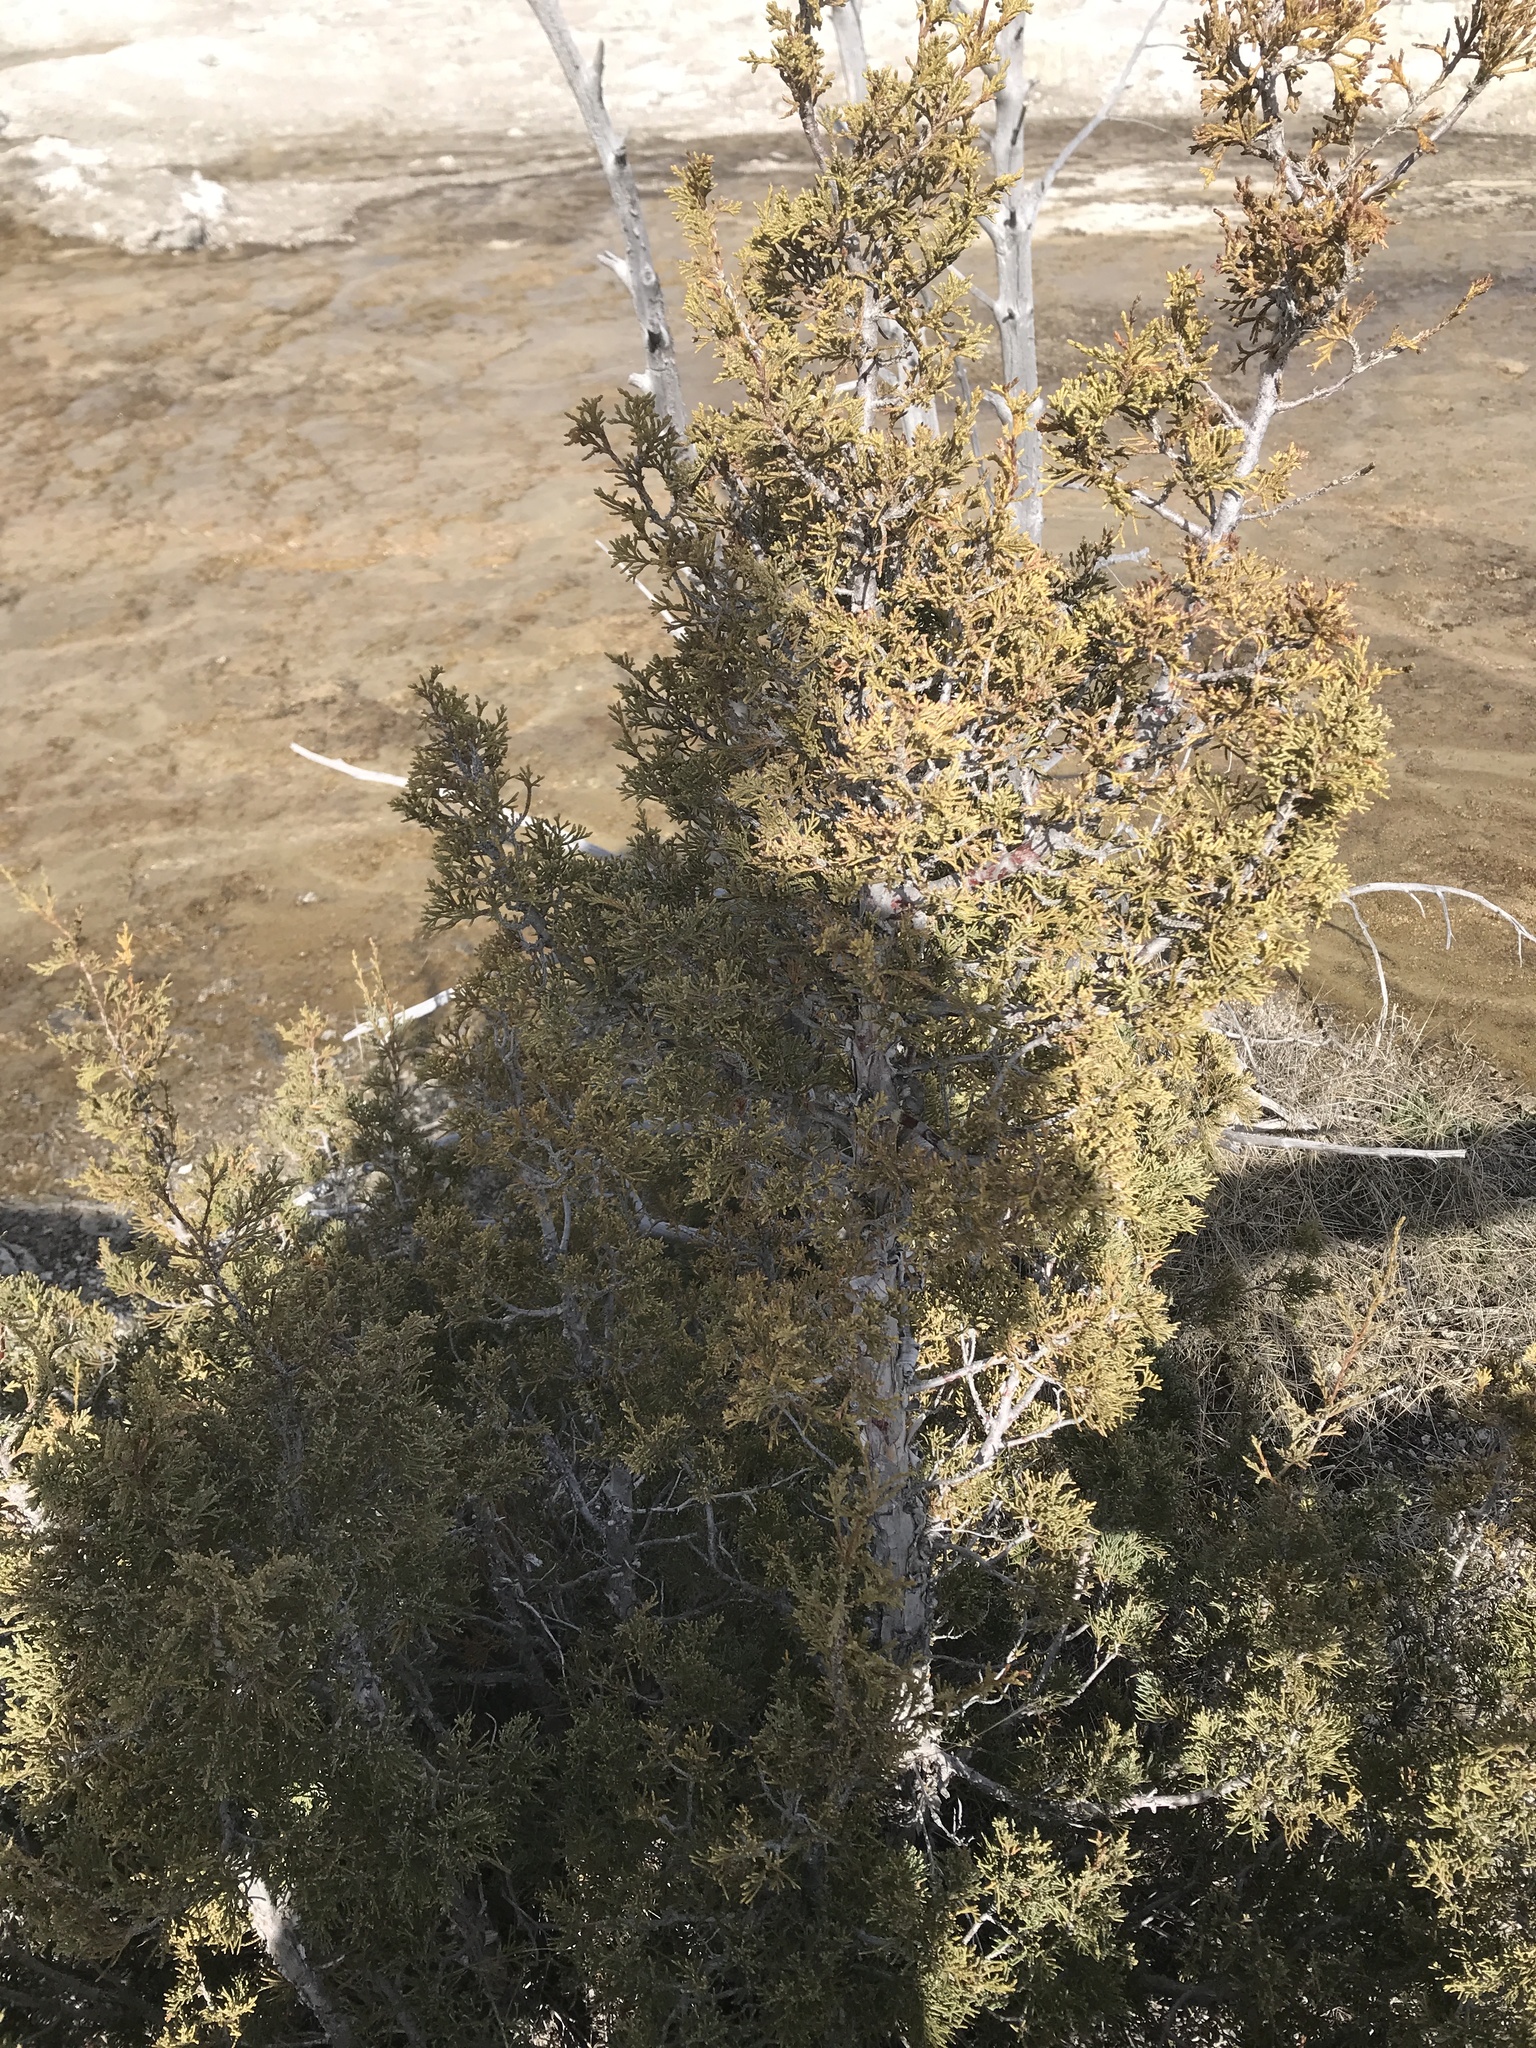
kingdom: Plantae
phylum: Tracheophyta
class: Pinopsida
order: Pinales
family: Cupressaceae
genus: Juniperus
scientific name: Juniperus scopulorum
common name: Rocky mountain juniper
